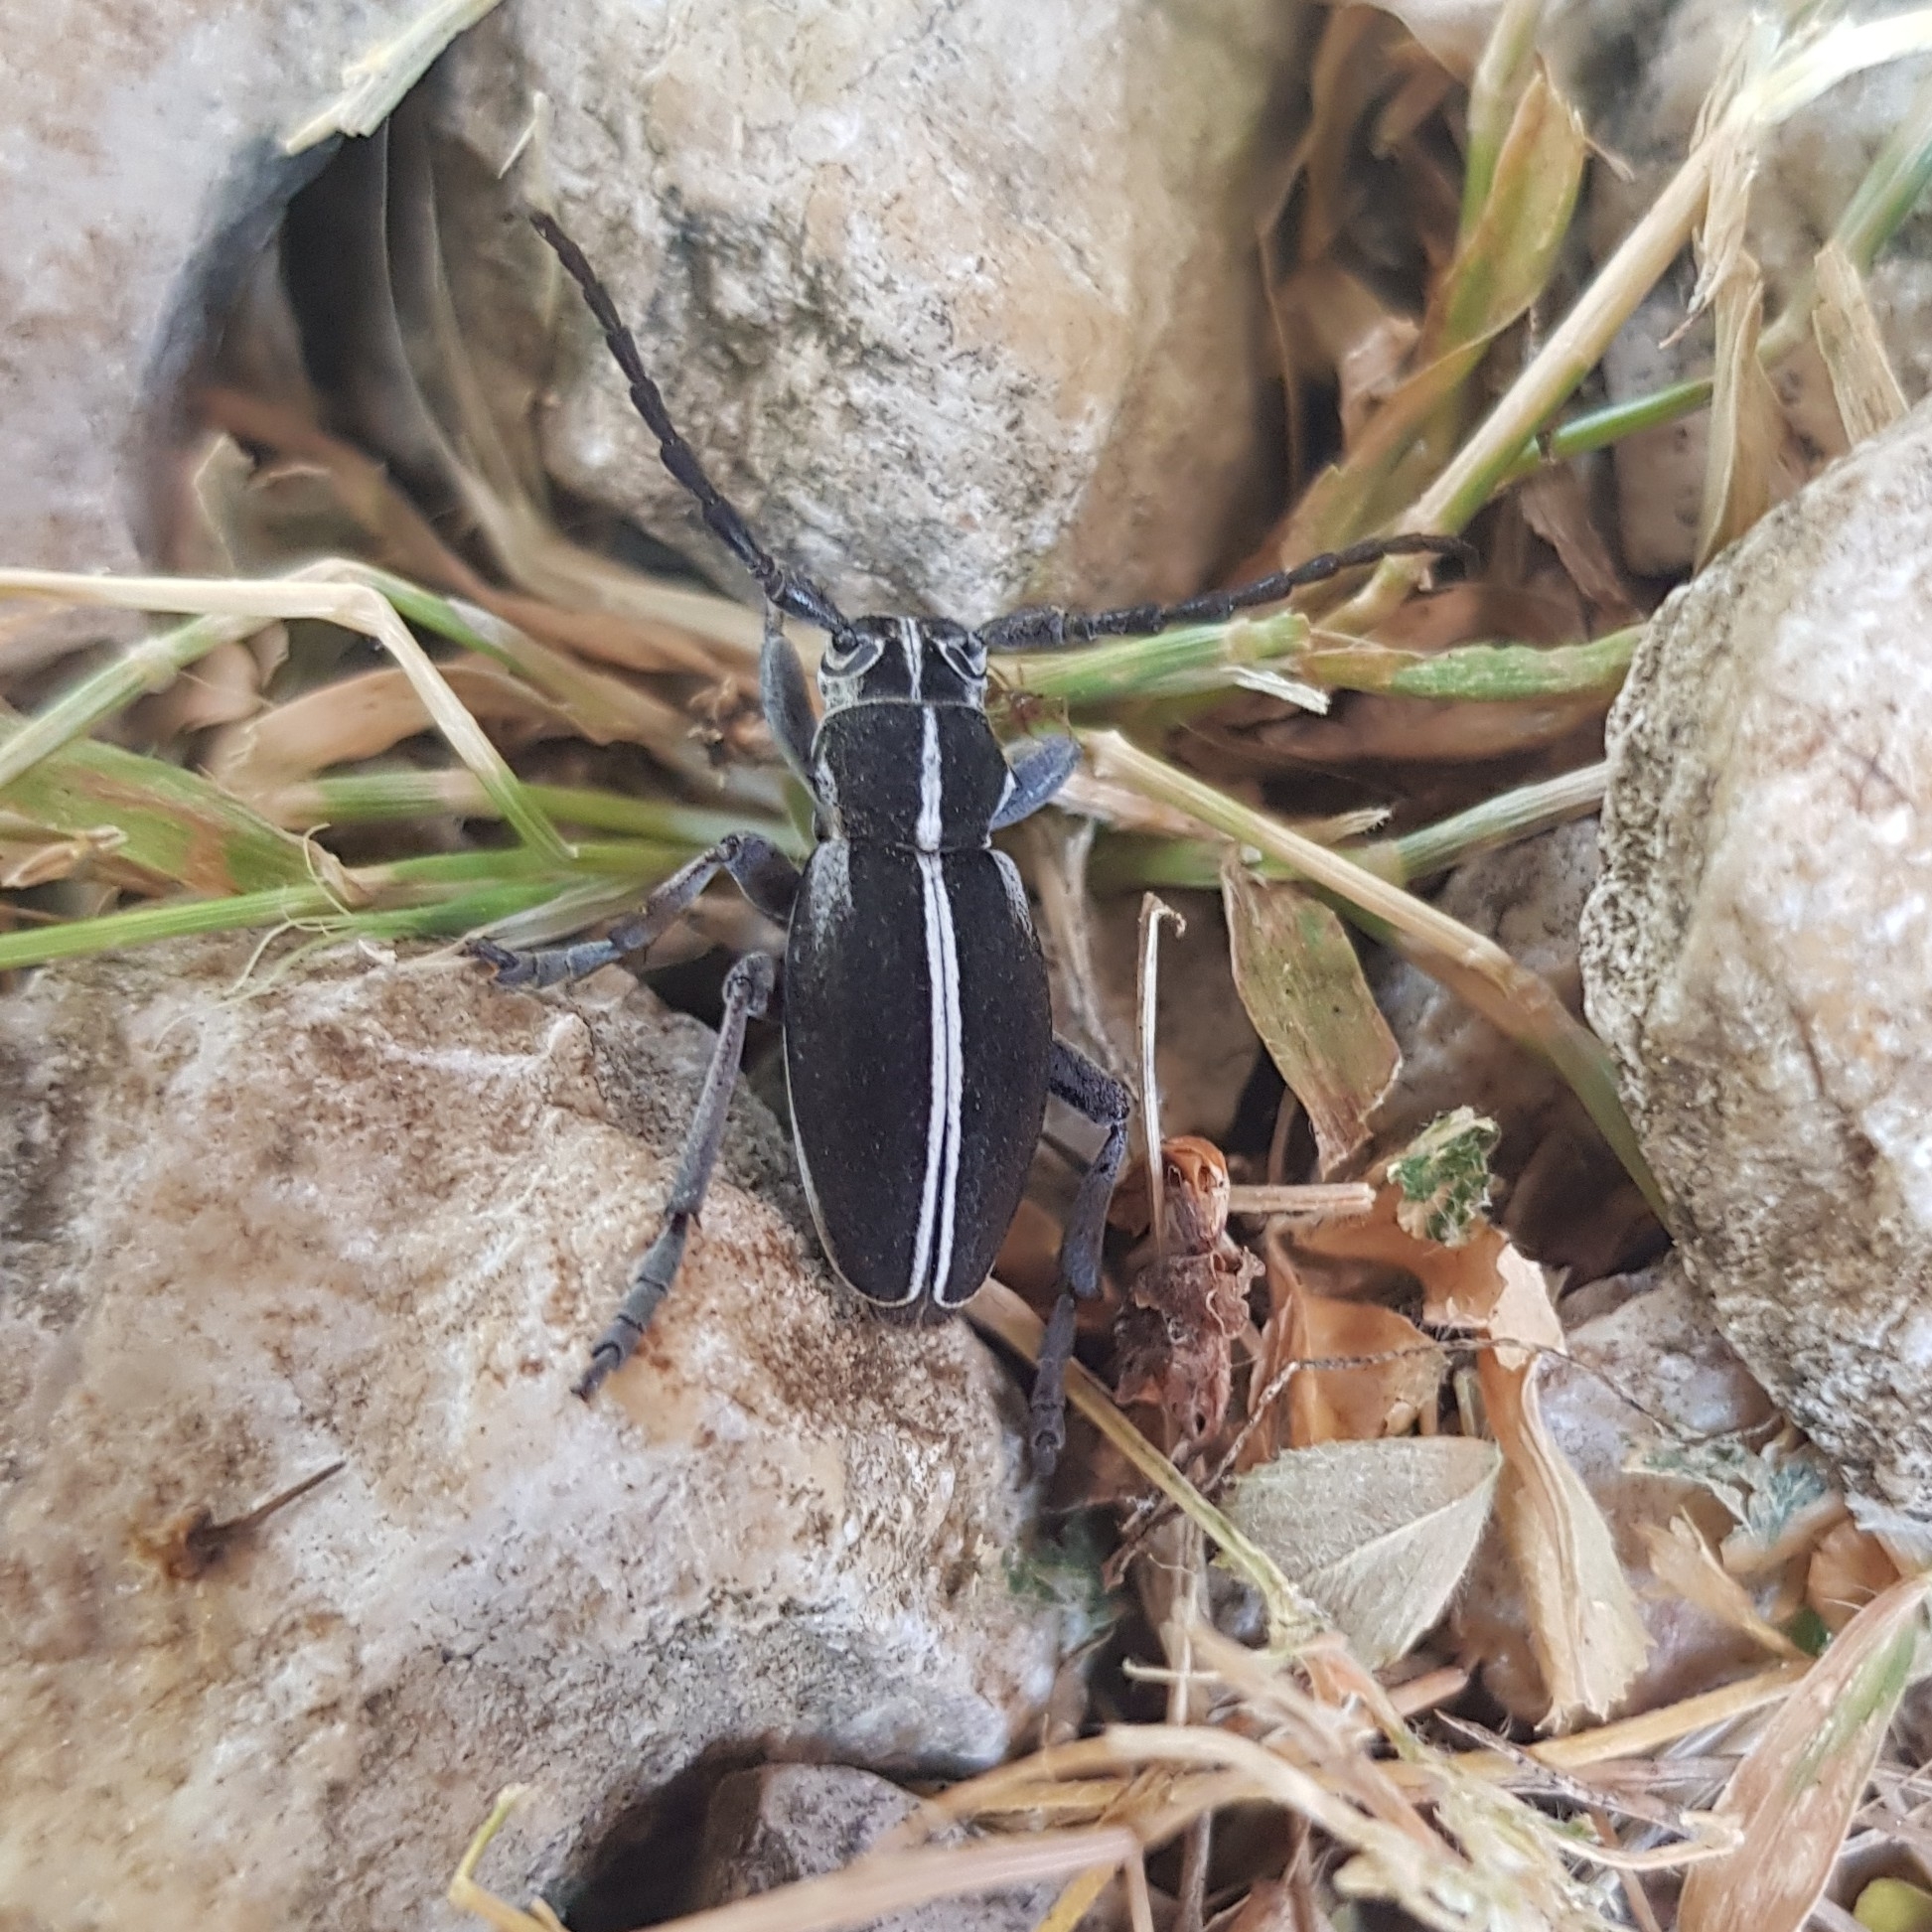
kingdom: Animalia
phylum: Arthropoda
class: Insecta
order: Coleoptera
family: Cerambycidae
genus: Dorcadion
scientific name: Dorcadion arenarium
